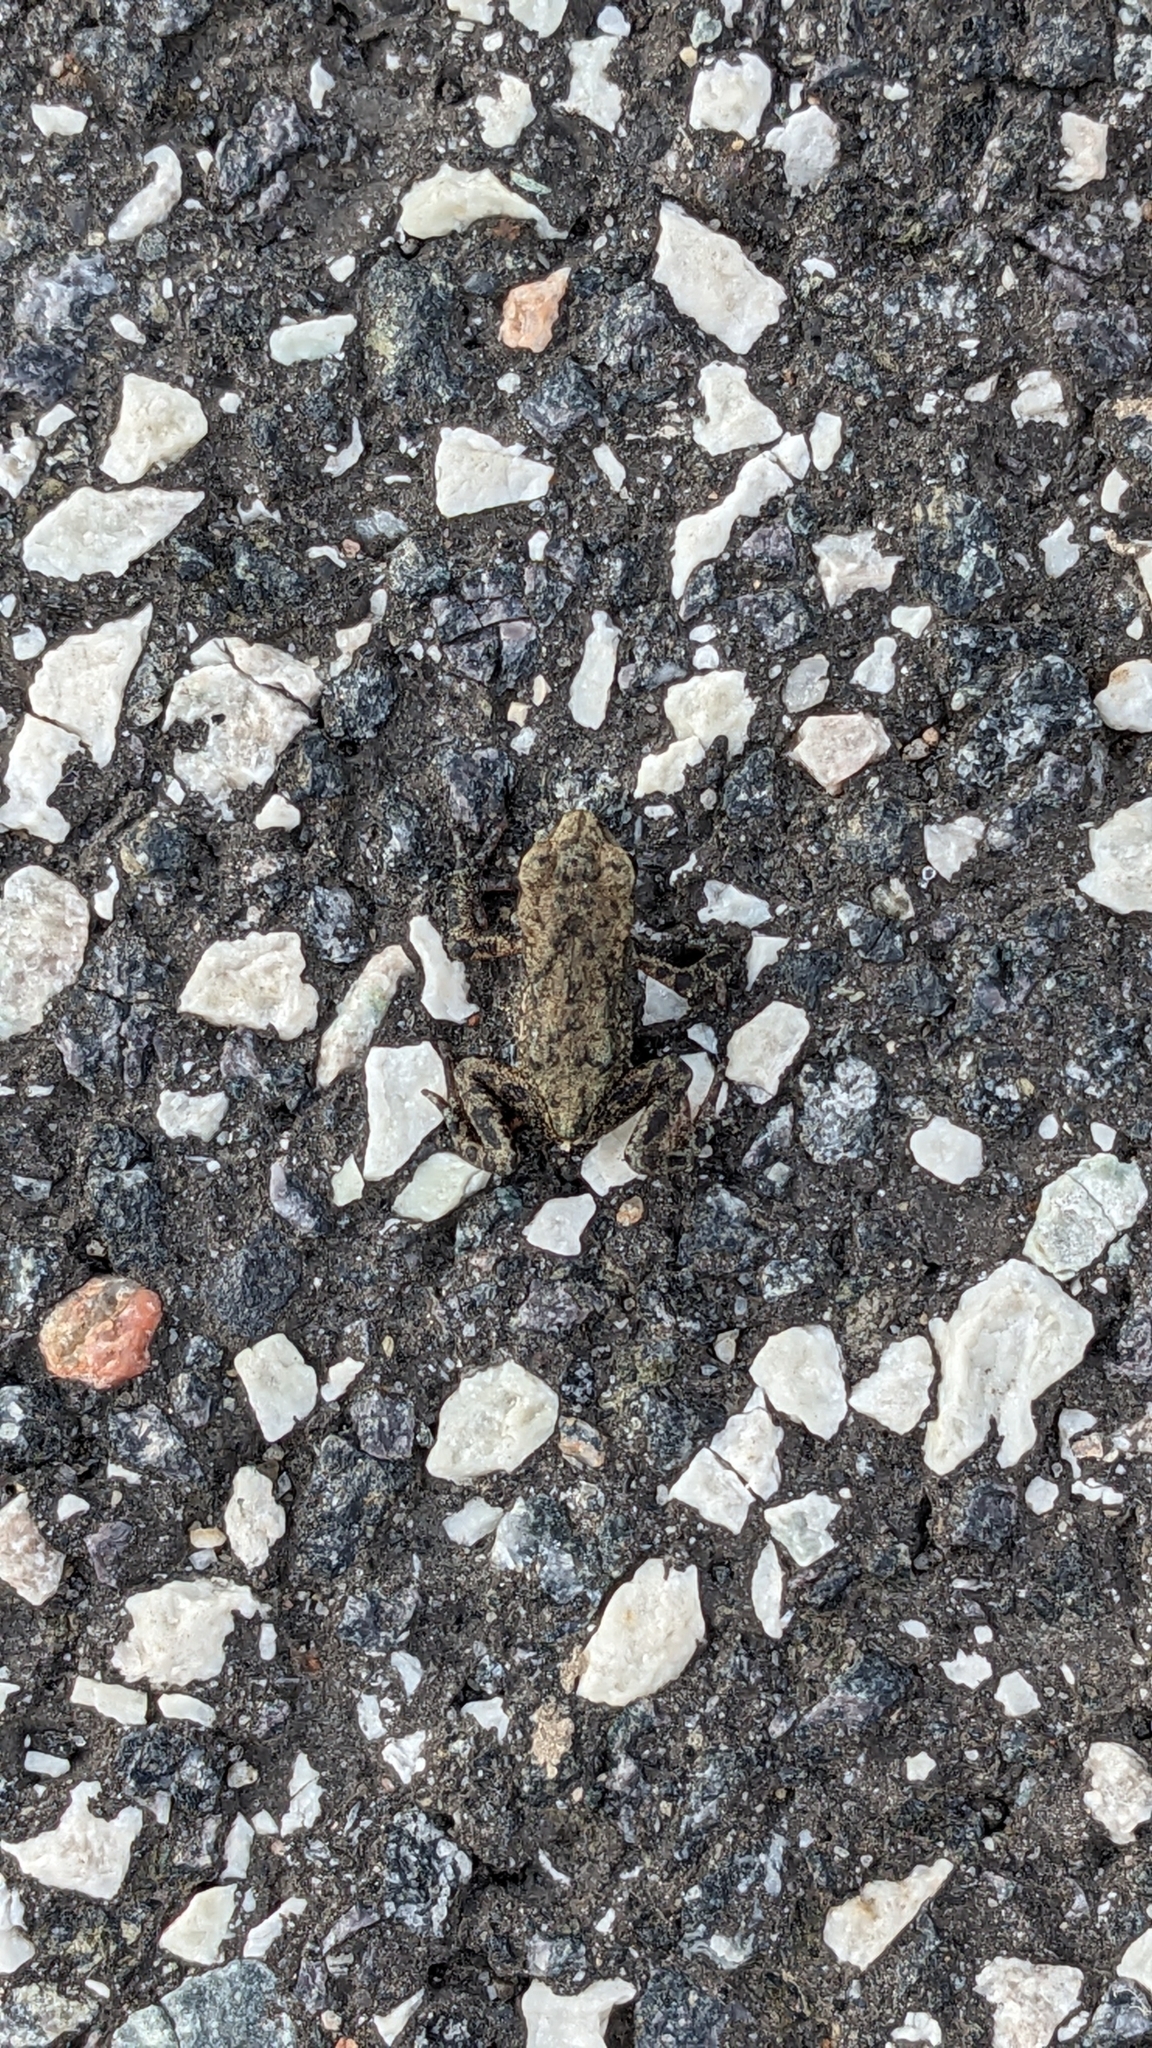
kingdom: Animalia
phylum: Chordata
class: Amphibia
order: Anura
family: Bufonidae
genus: Bufo
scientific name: Bufo bufo
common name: Common toad
